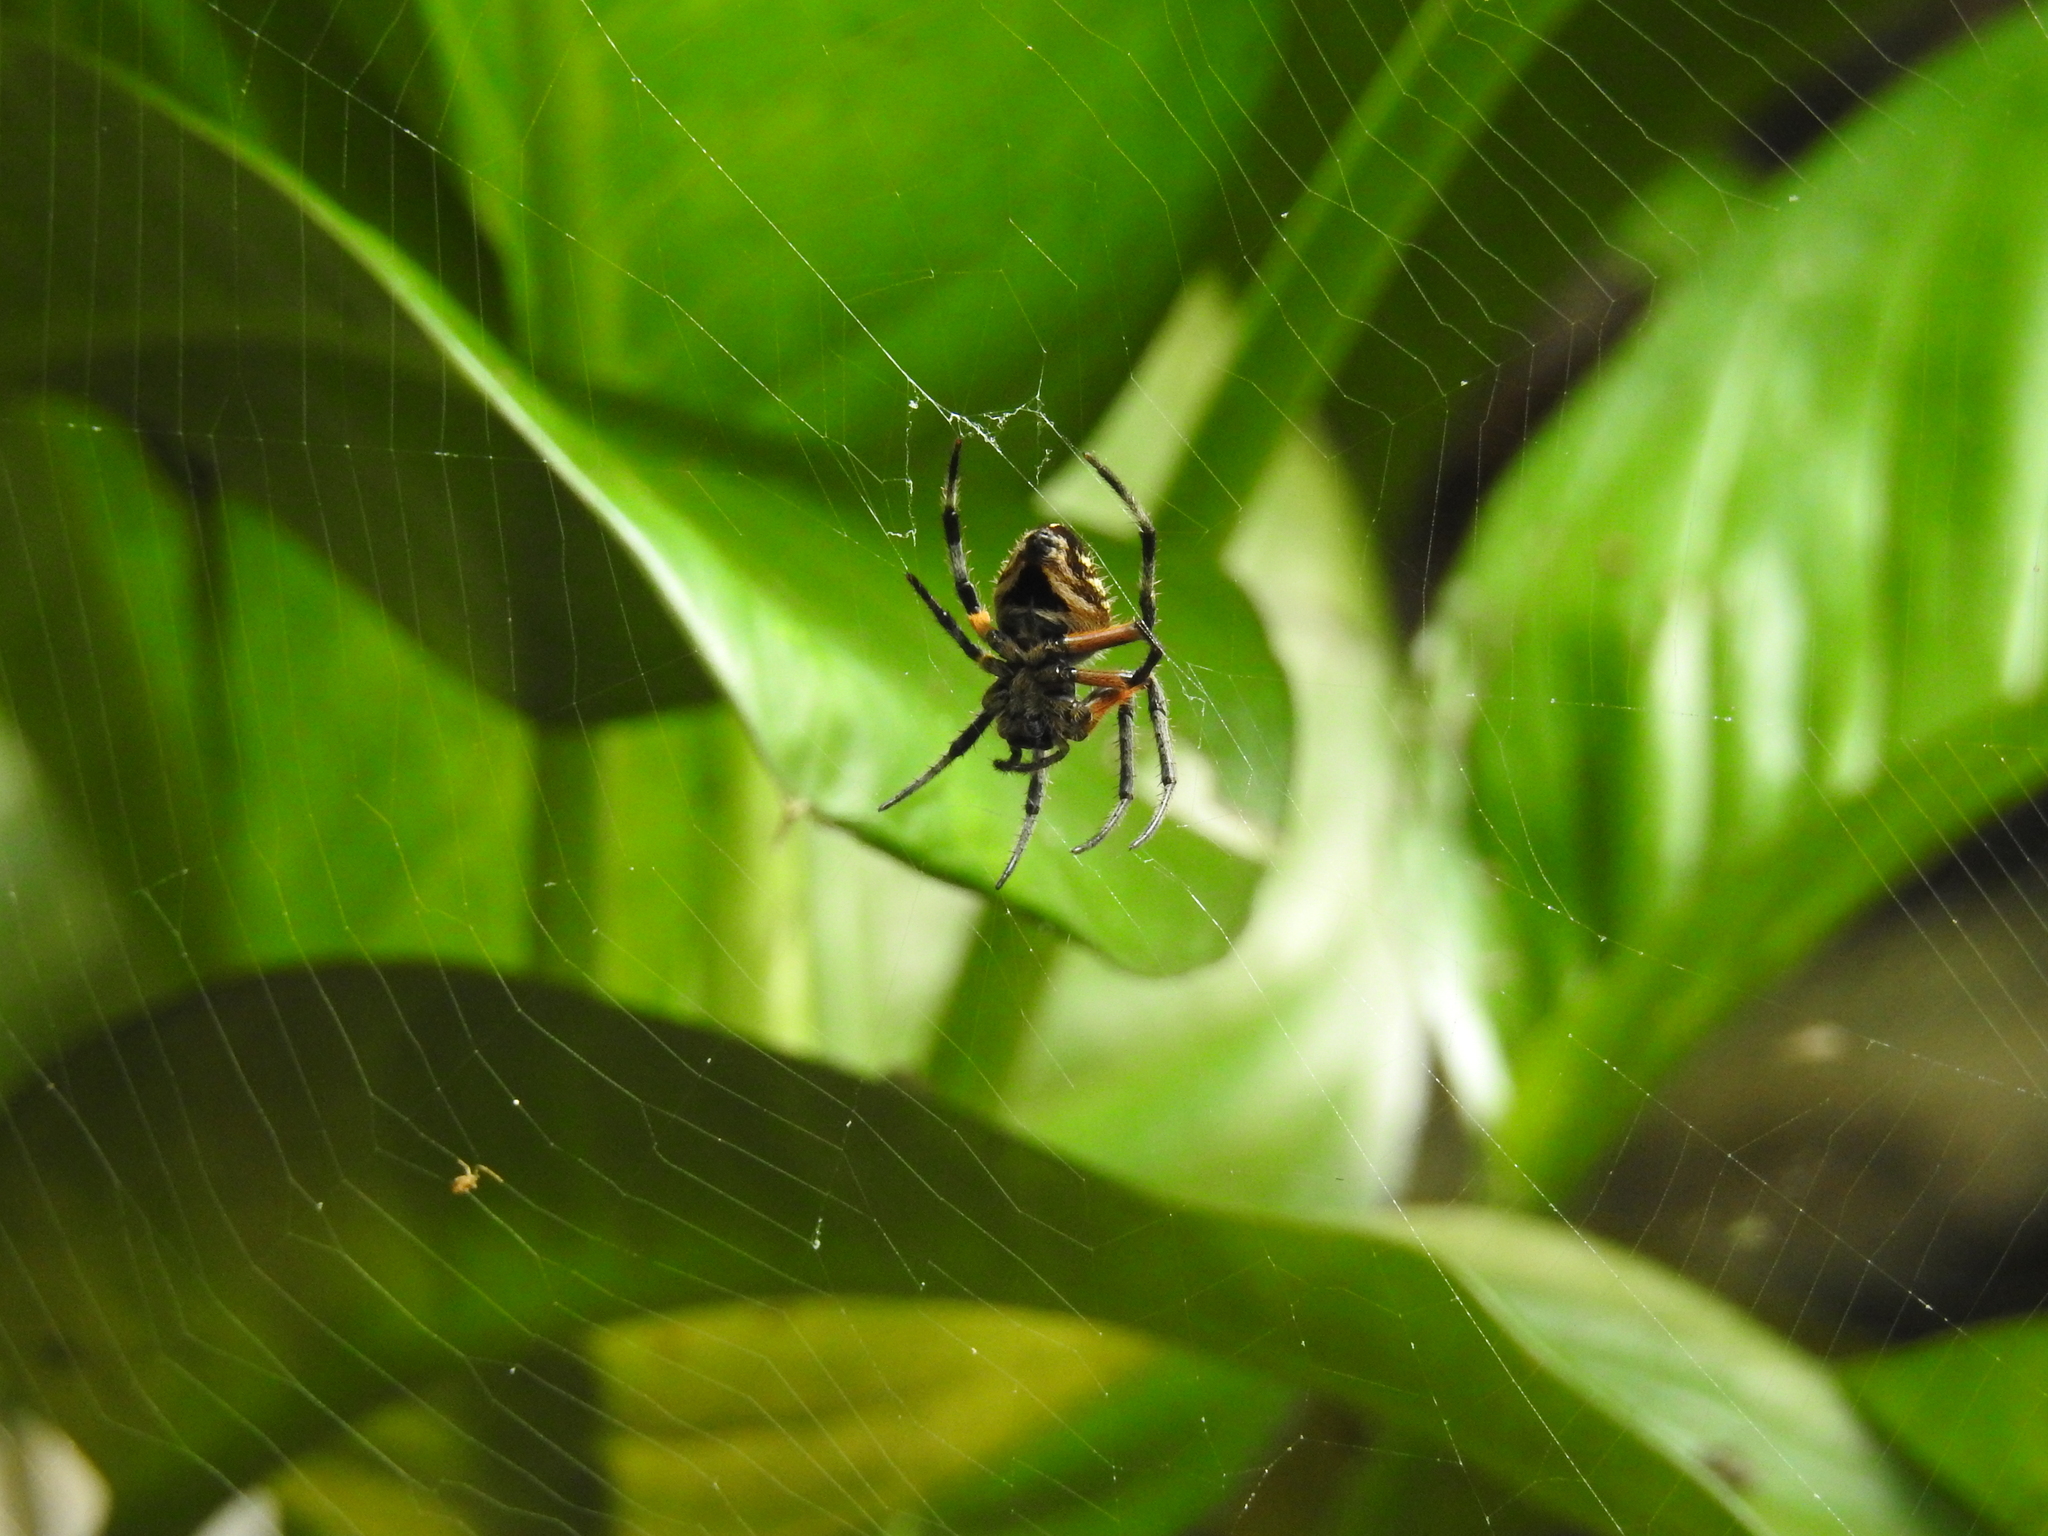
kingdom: Animalia
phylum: Arthropoda
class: Arachnida
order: Araneae
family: Araneidae
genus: Eriophora
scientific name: Eriophora fuliginea
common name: Orb weavers
